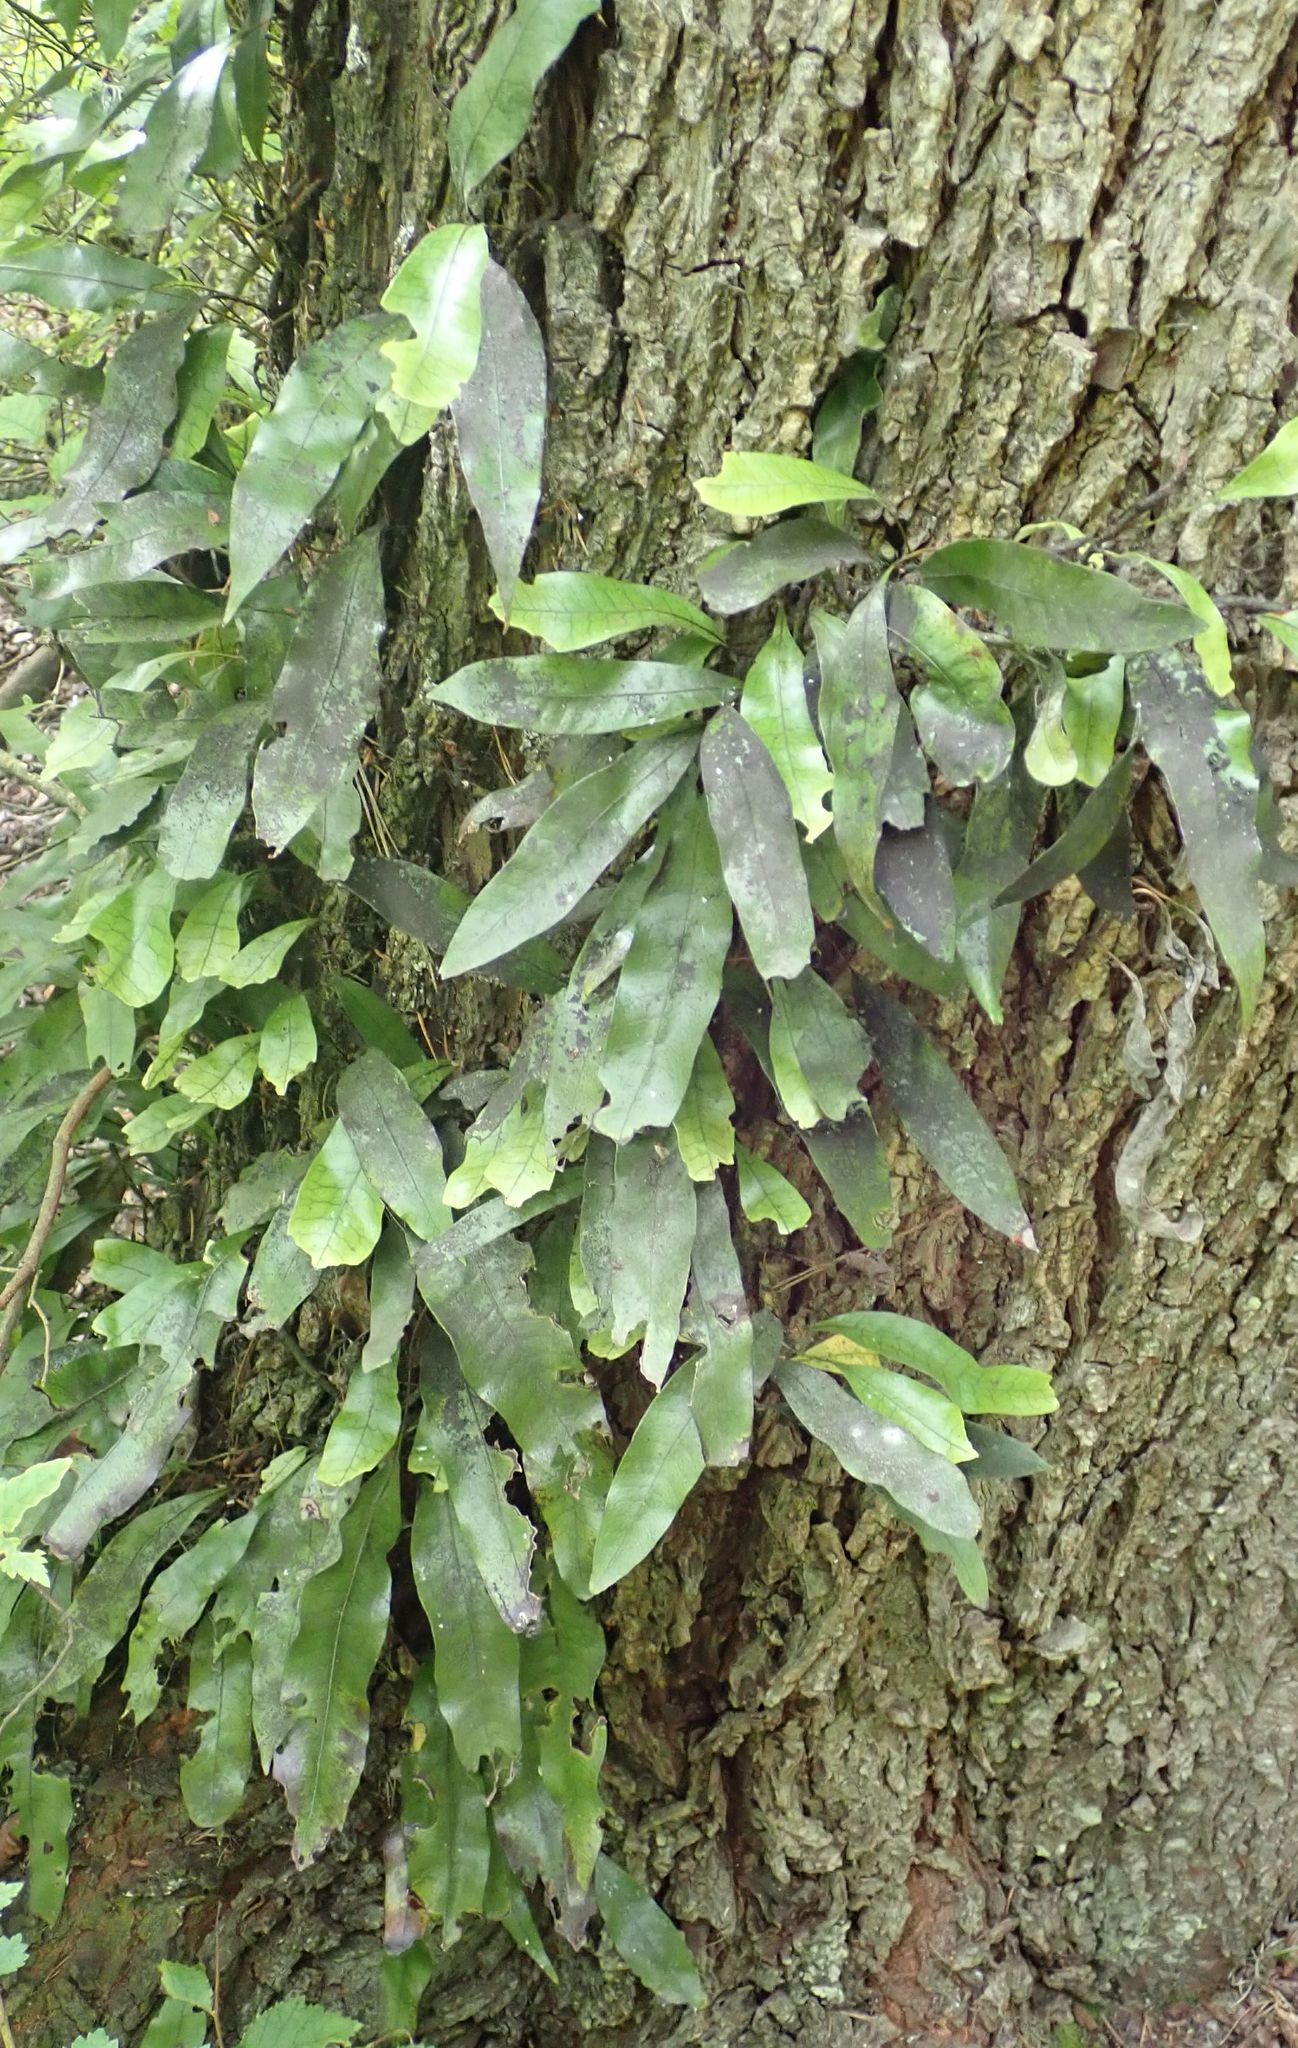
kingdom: Plantae
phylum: Tracheophyta
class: Polypodiopsida
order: Polypodiales
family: Polypodiaceae
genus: Lecanopteris
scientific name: Lecanopteris pustulata
